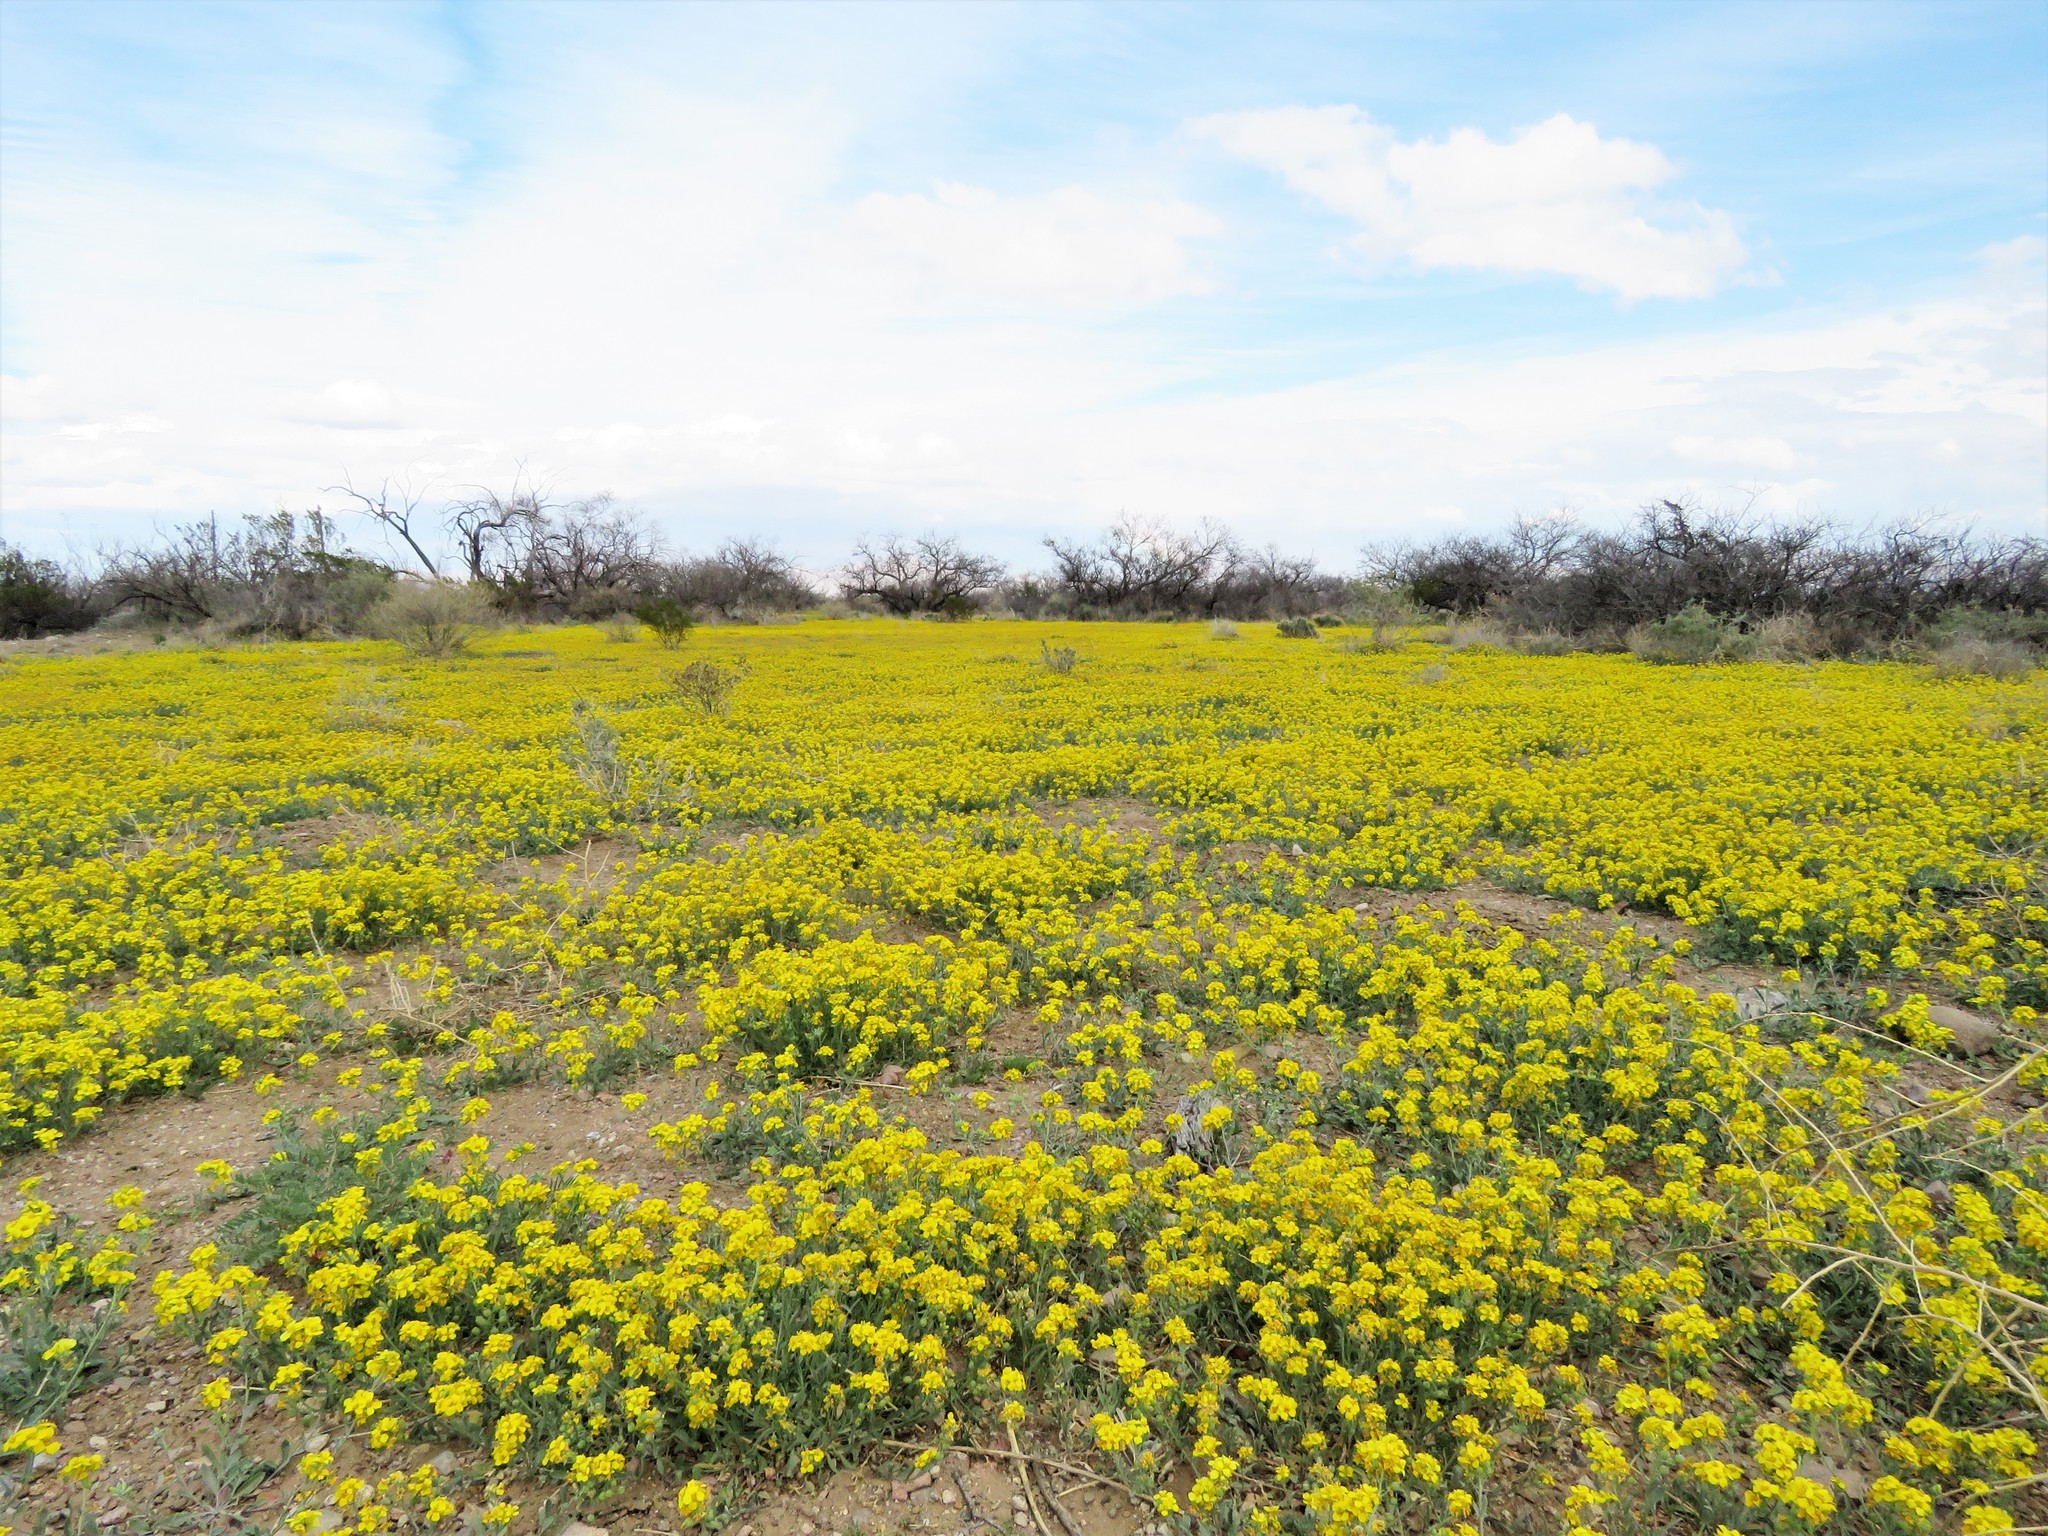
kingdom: Plantae
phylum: Tracheophyta
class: Magnoliopsida
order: Brassicales
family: Brassicaceae
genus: Physaria
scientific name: Physaria gordonii
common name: Gordon's bladderpod
